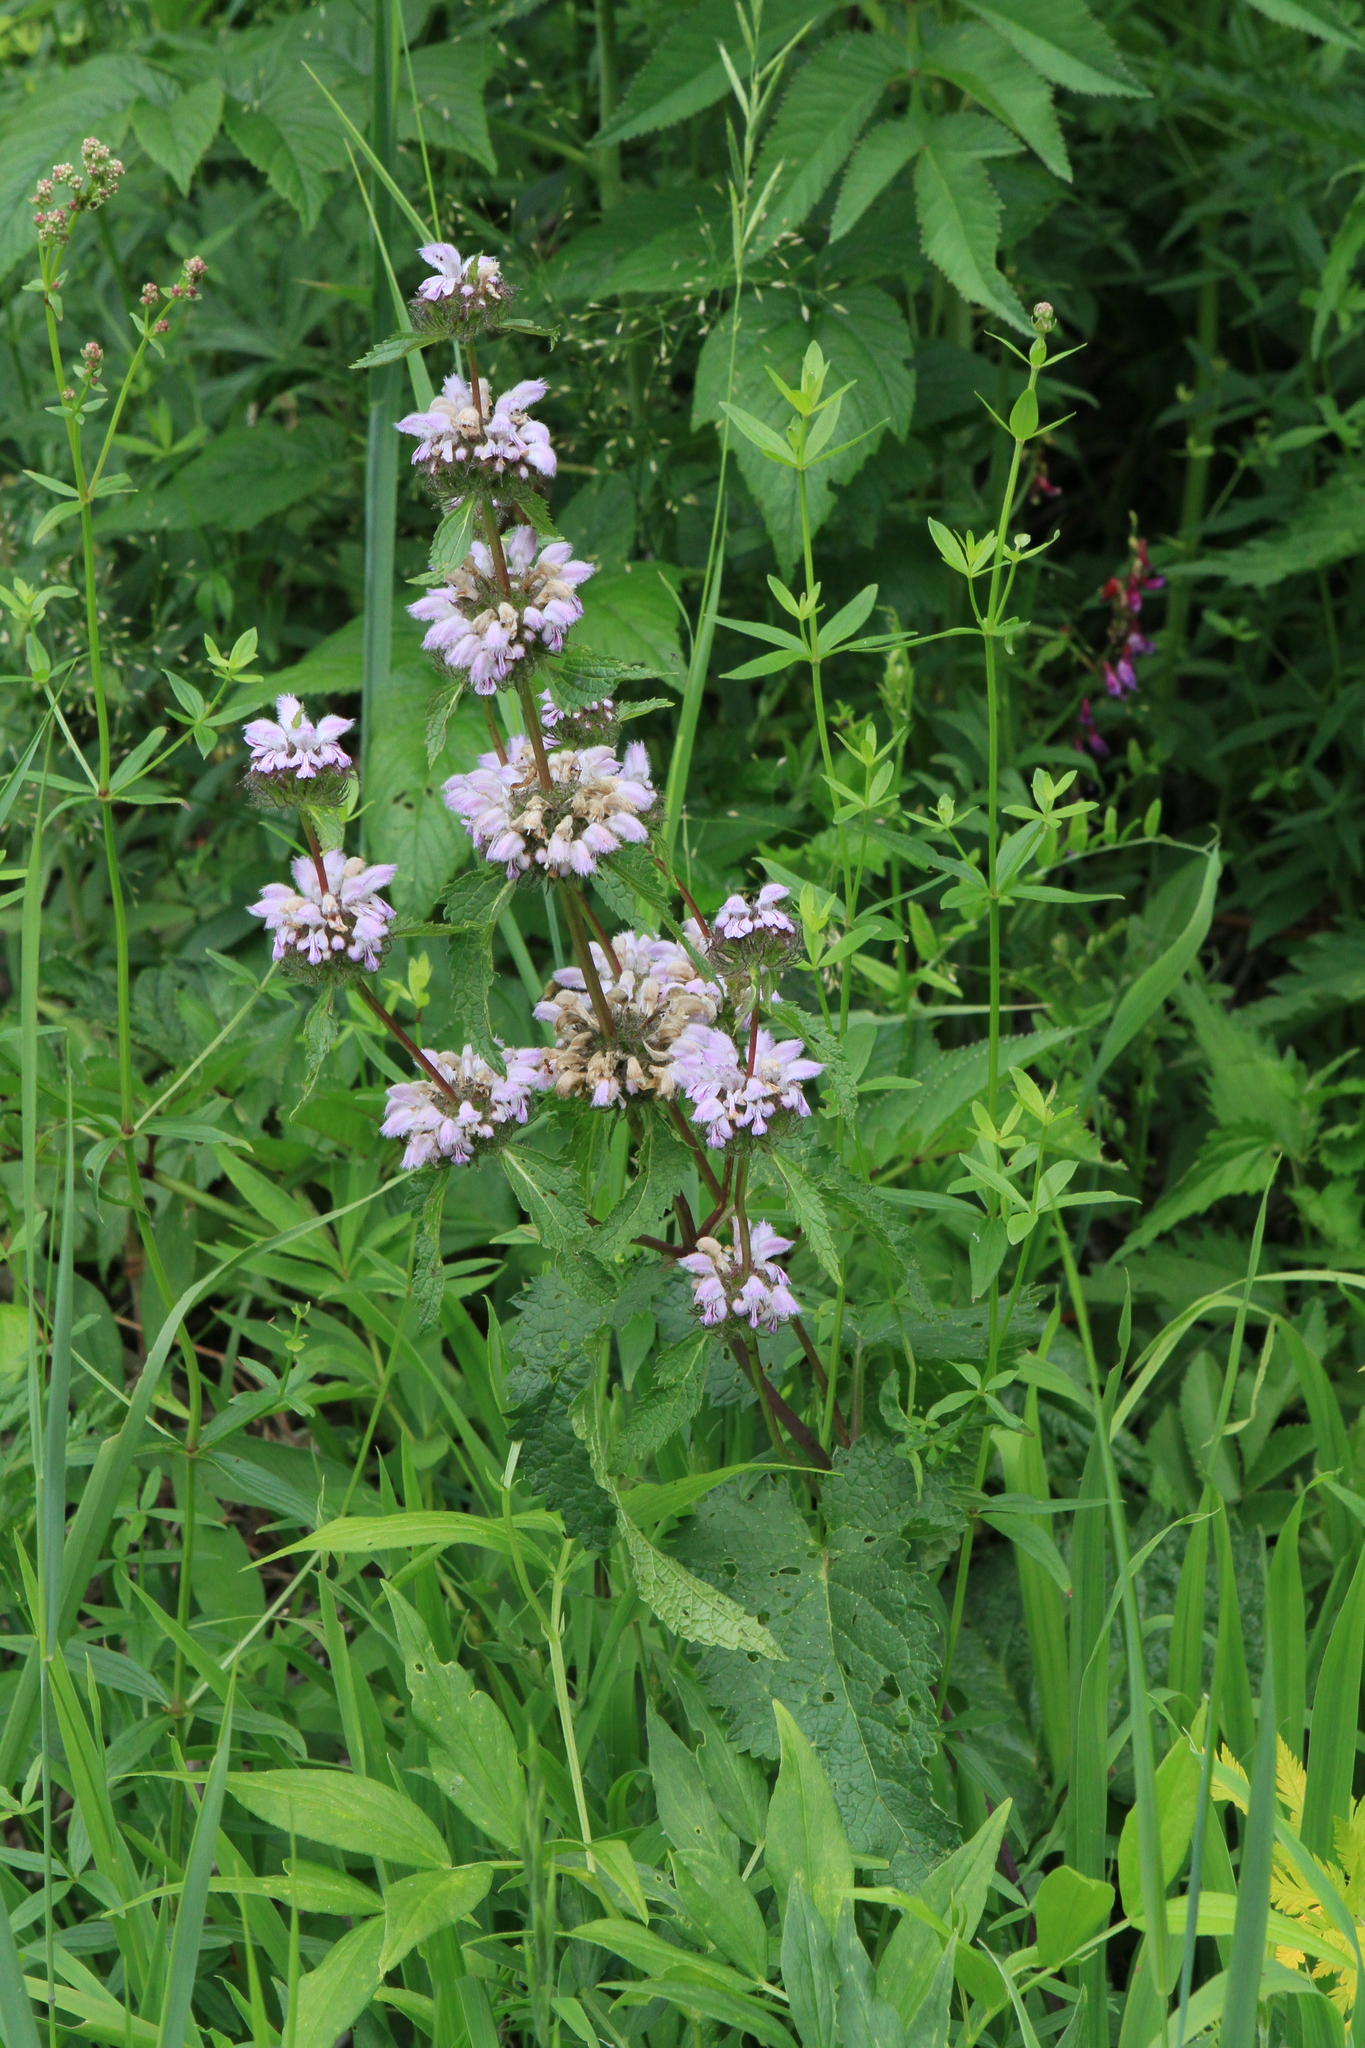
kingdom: Plantae
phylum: Tracheophyta
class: Magnoliopsida
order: Lamiales
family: Lamiaceae
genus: Phlomoides
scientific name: Phlomoides tuberosa
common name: Tuberous jerusalem sage
